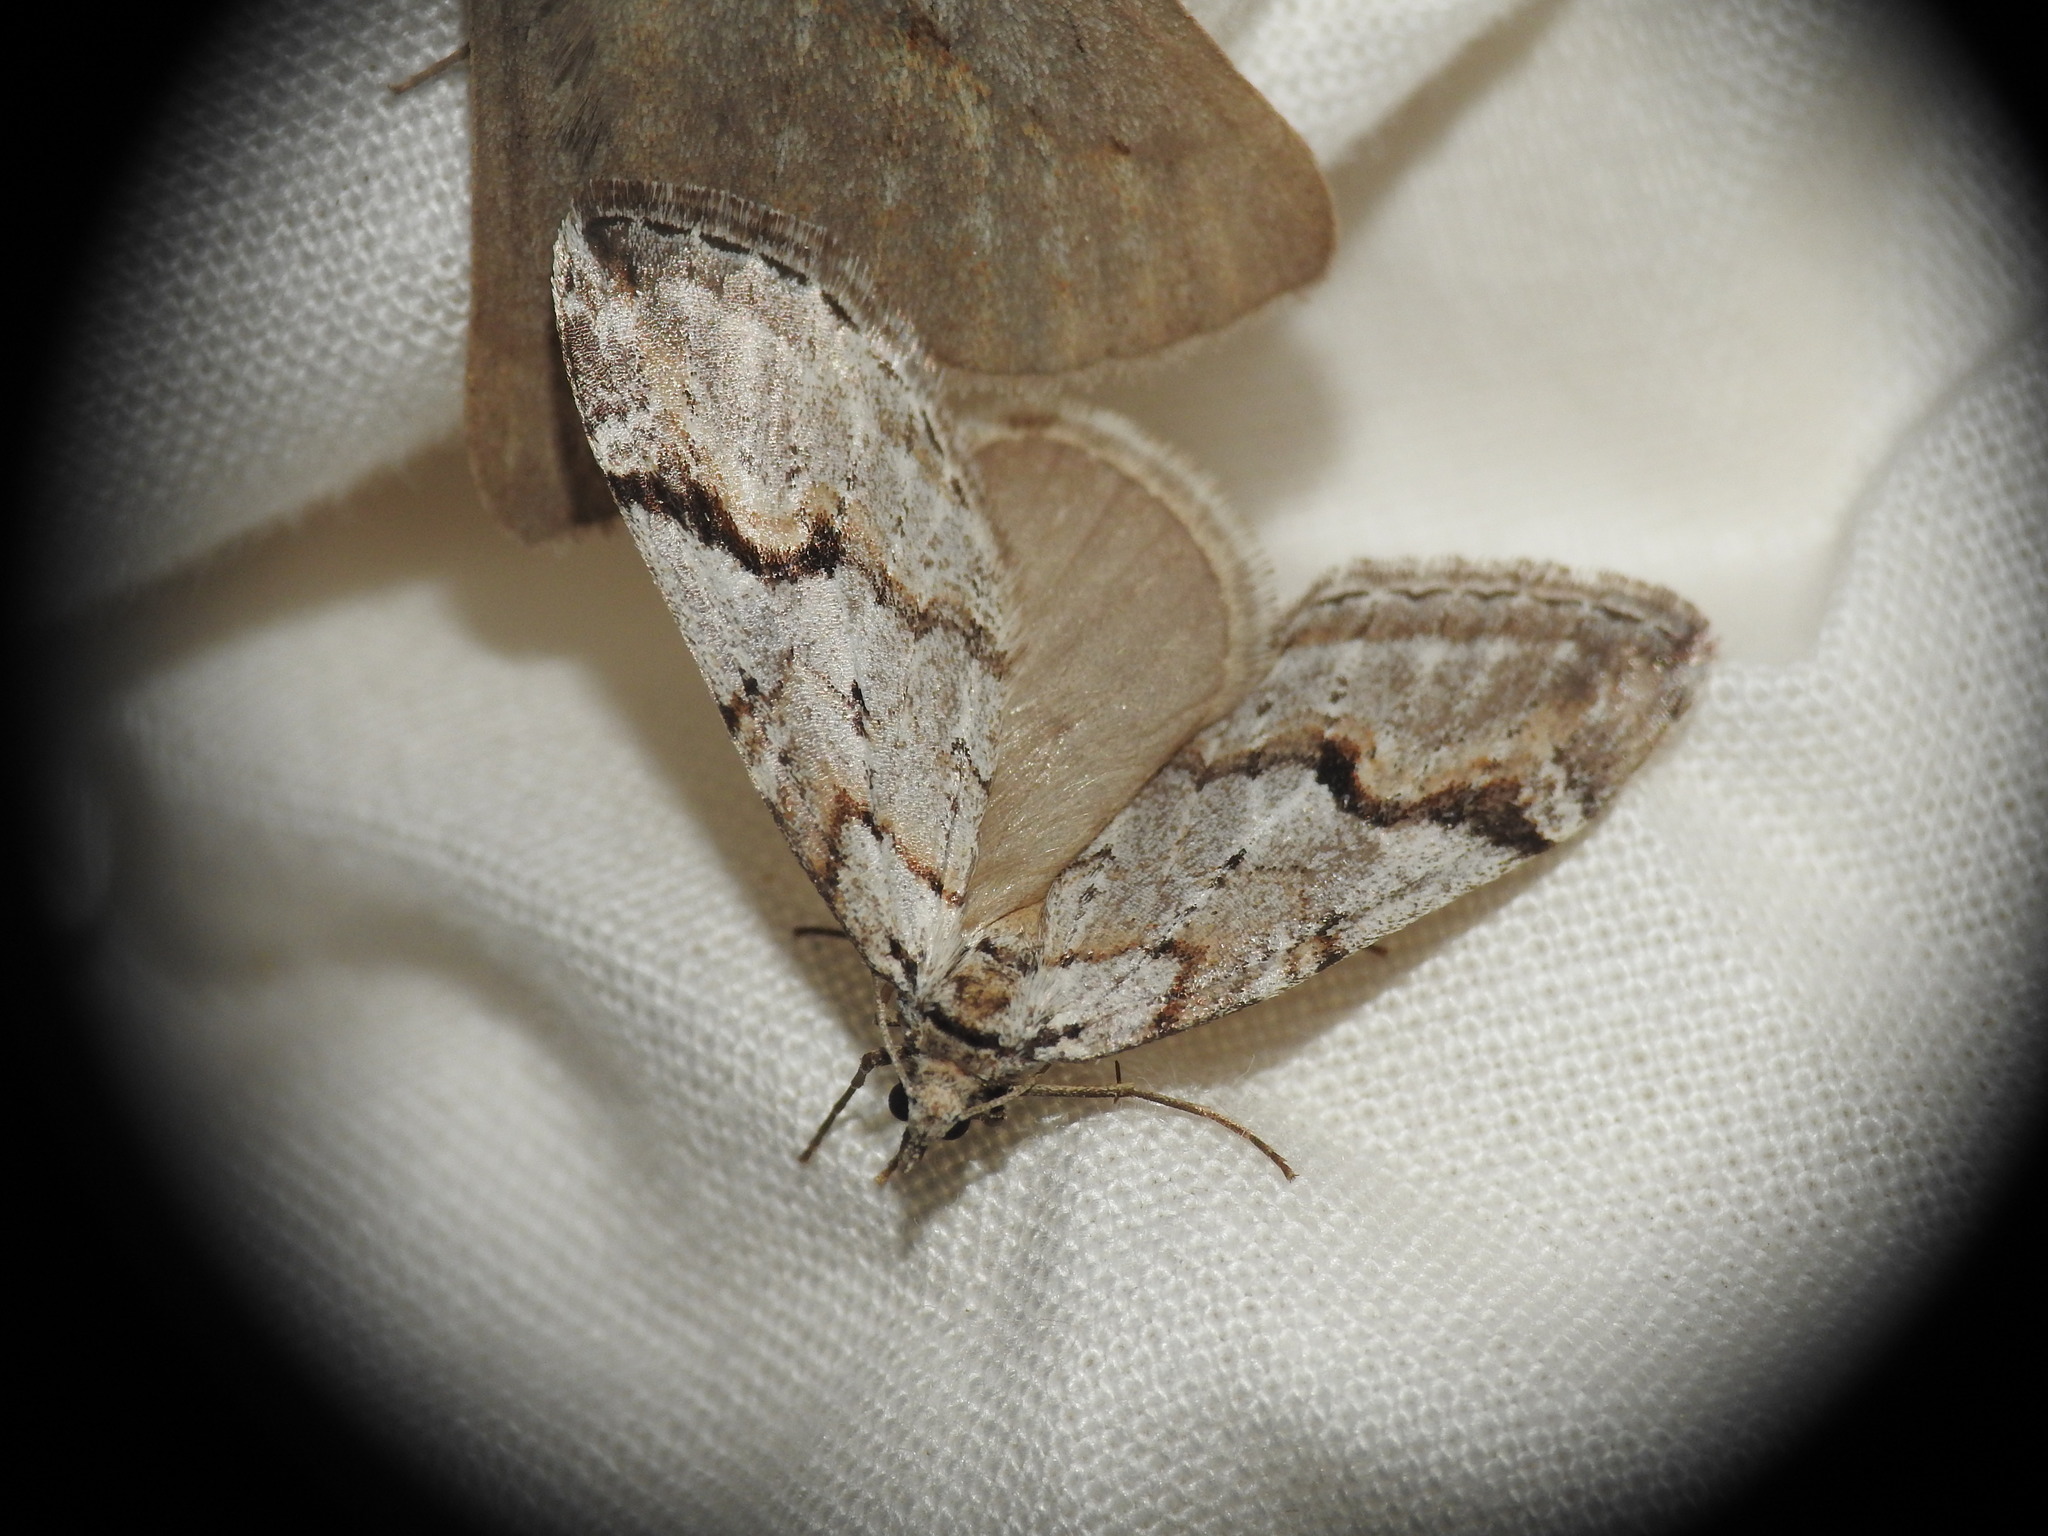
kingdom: Animalia
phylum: Arthropoda
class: Insecta
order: Lepidoptera
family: Geometridae
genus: Chesias
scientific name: Chesias rufata
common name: Broom-tip
